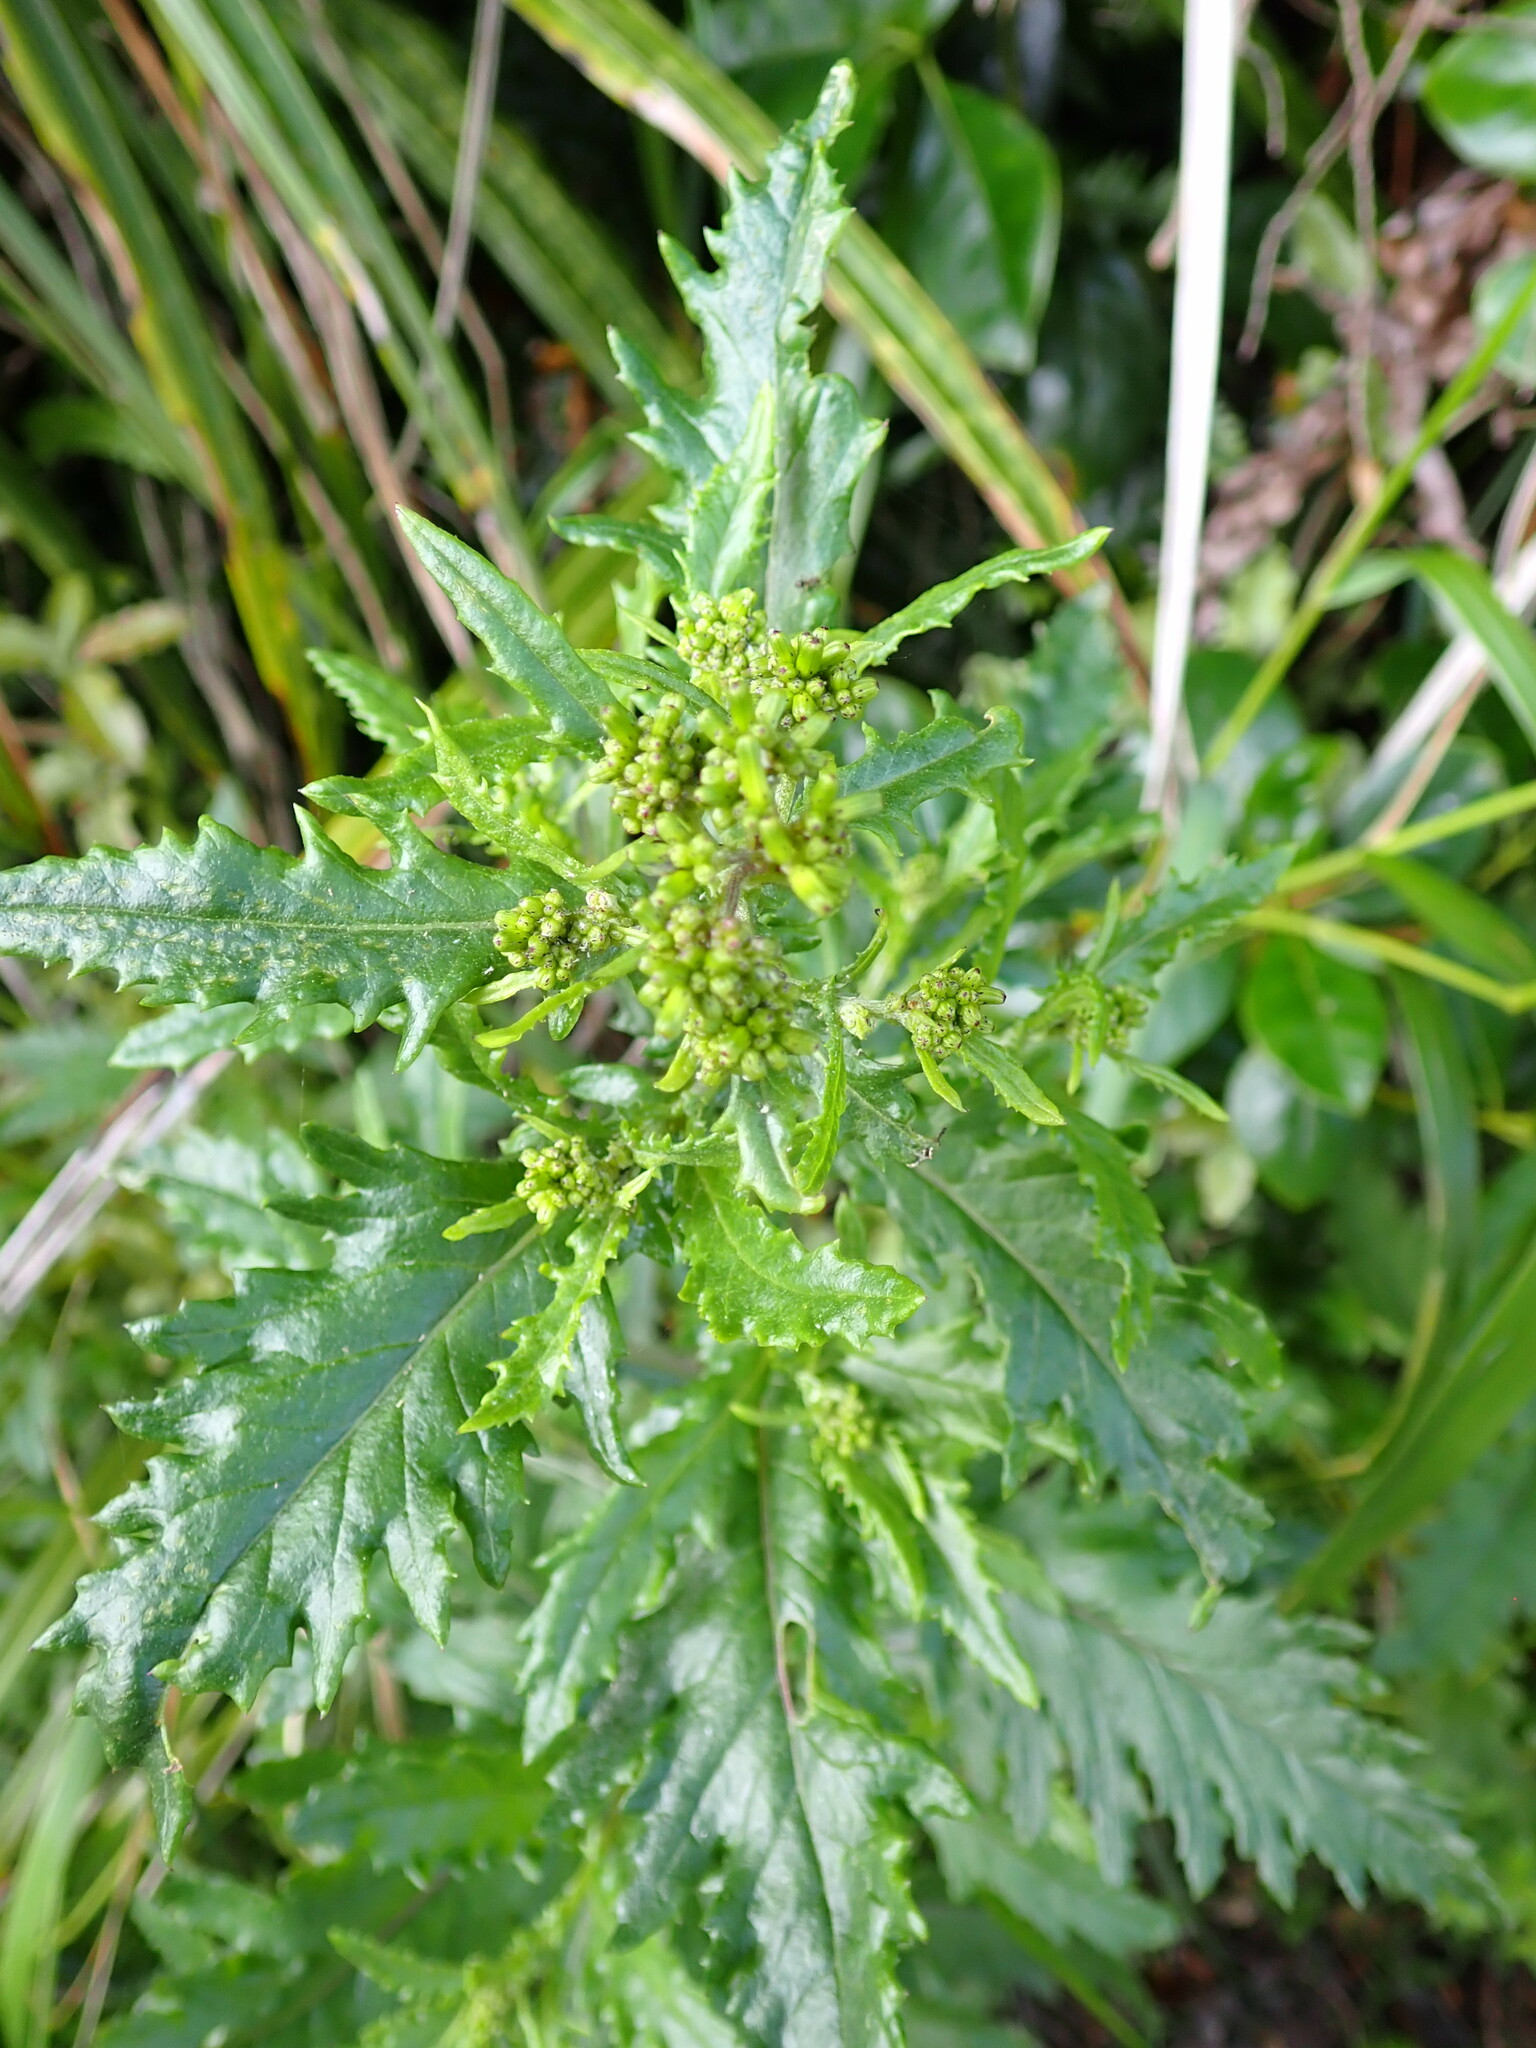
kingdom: Plantae
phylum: Tracheophyta
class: Magnoliopsida
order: Asterales
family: Asteraceae
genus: Senecio
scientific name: Senecio biserratus
